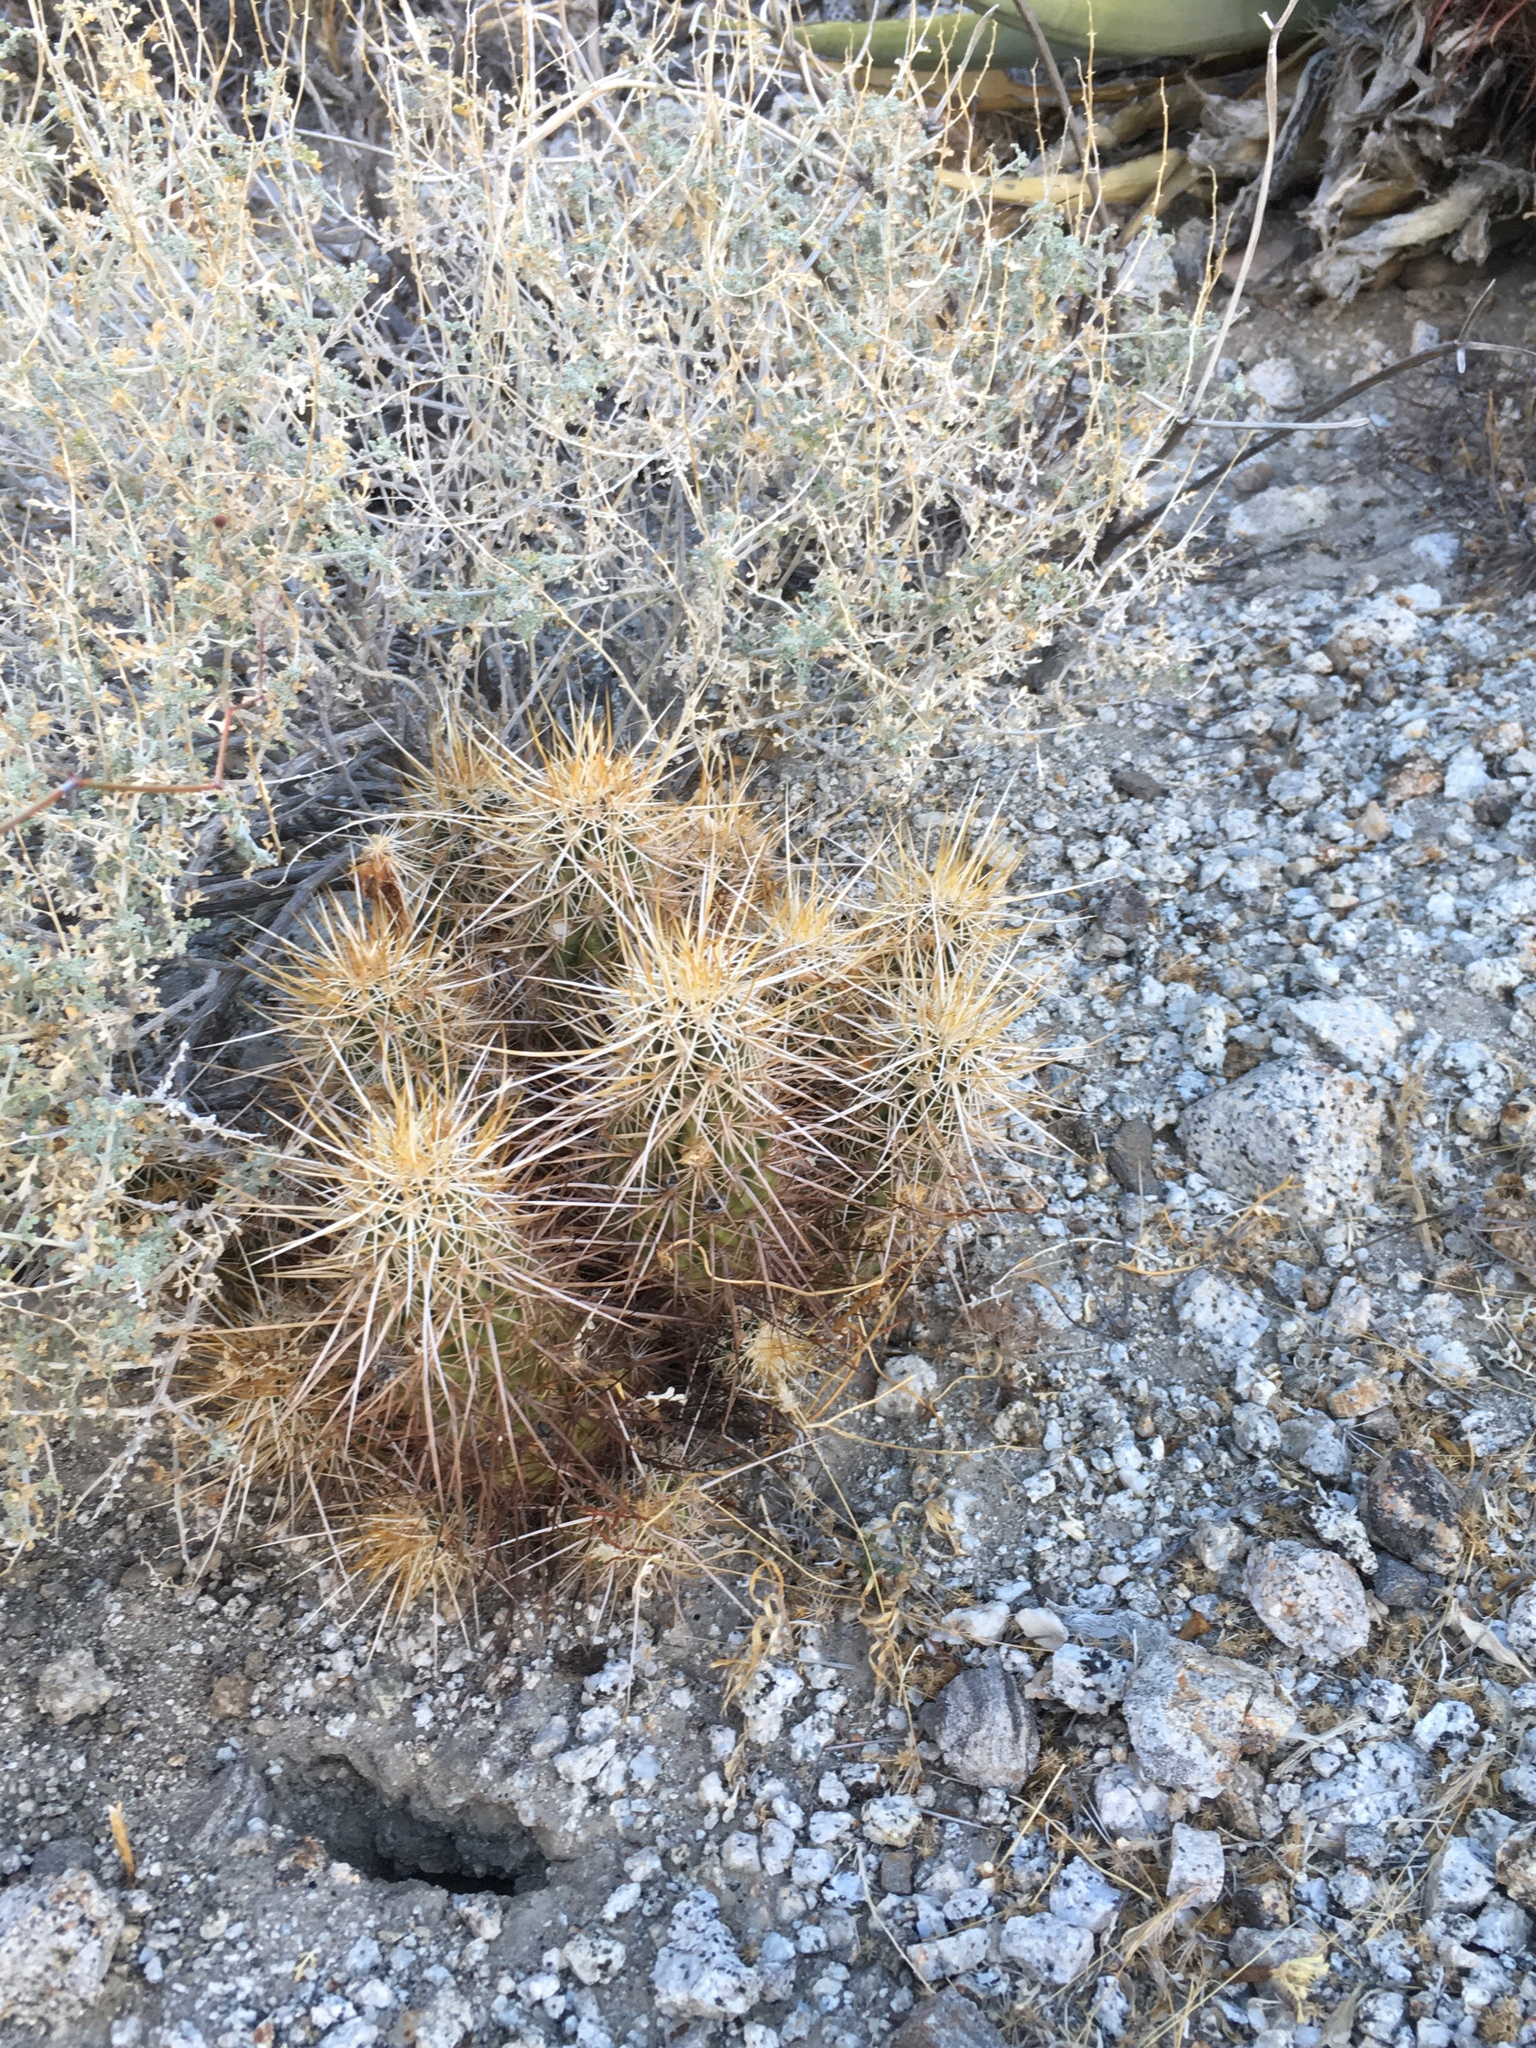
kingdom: Plantae
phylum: Tracheophyta
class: Magnoliopsida
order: Caryophyllales
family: Cactaceae
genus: Echinocereus
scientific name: Echinocereus engelmannii
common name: Engelmann's hedgehog cactus
